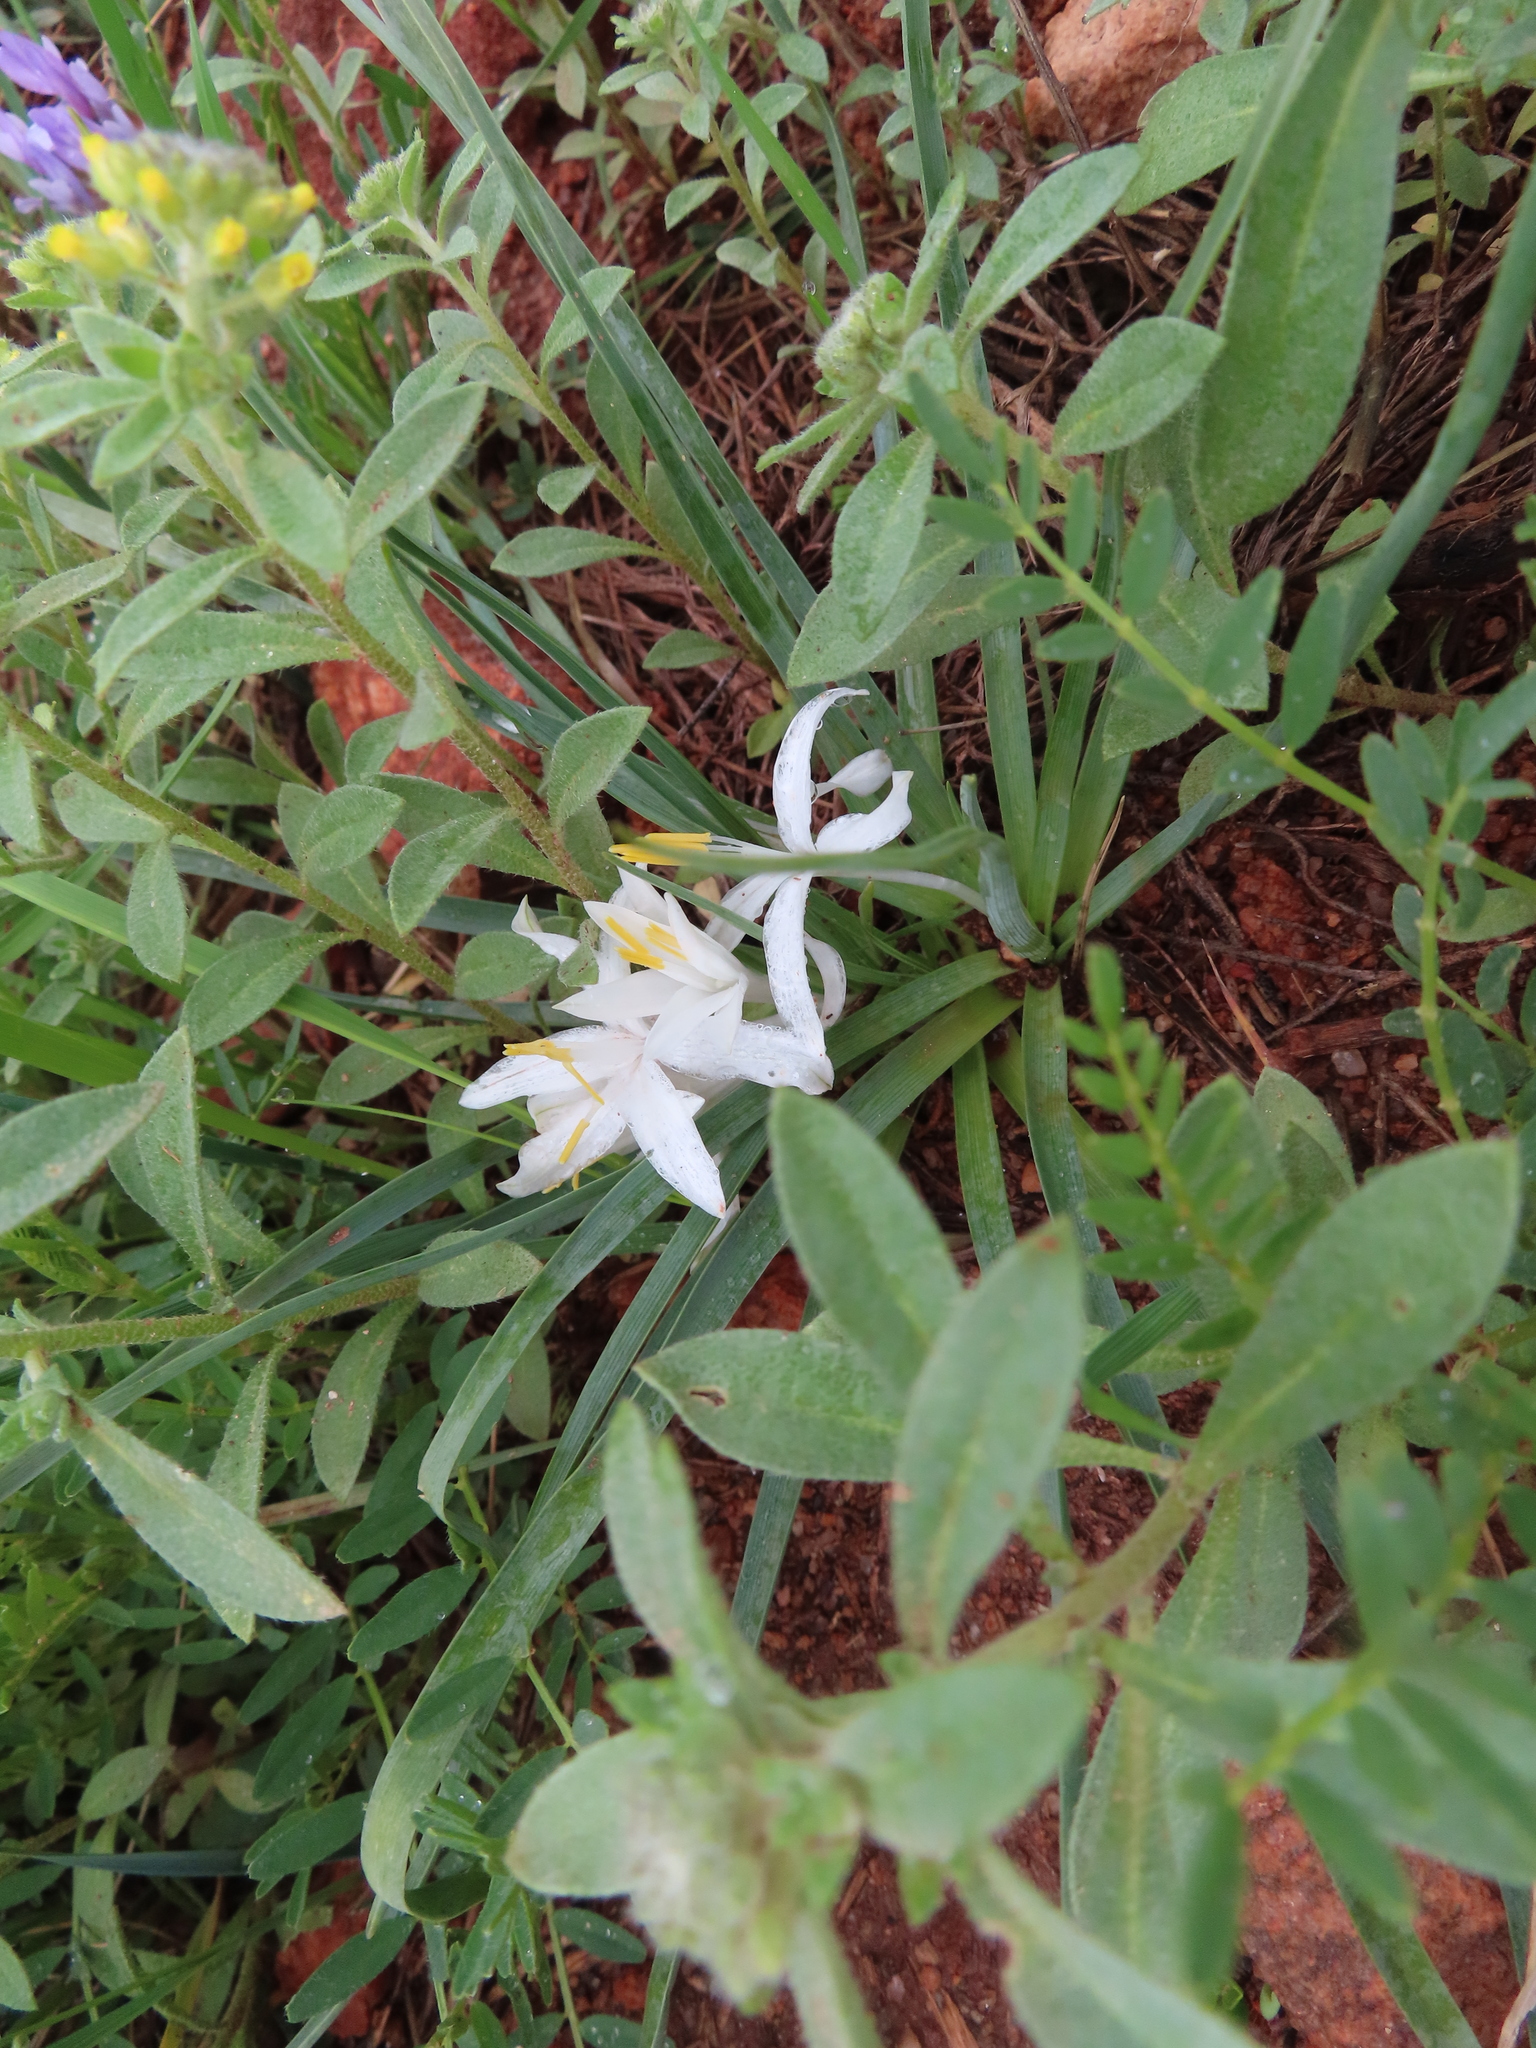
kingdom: Plantae
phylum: Tracheophyta
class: Liliopsida
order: Asparagales
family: Asparagaceae
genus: Leucocrinum
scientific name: Leucocrinum montanum
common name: Mountain-lily
